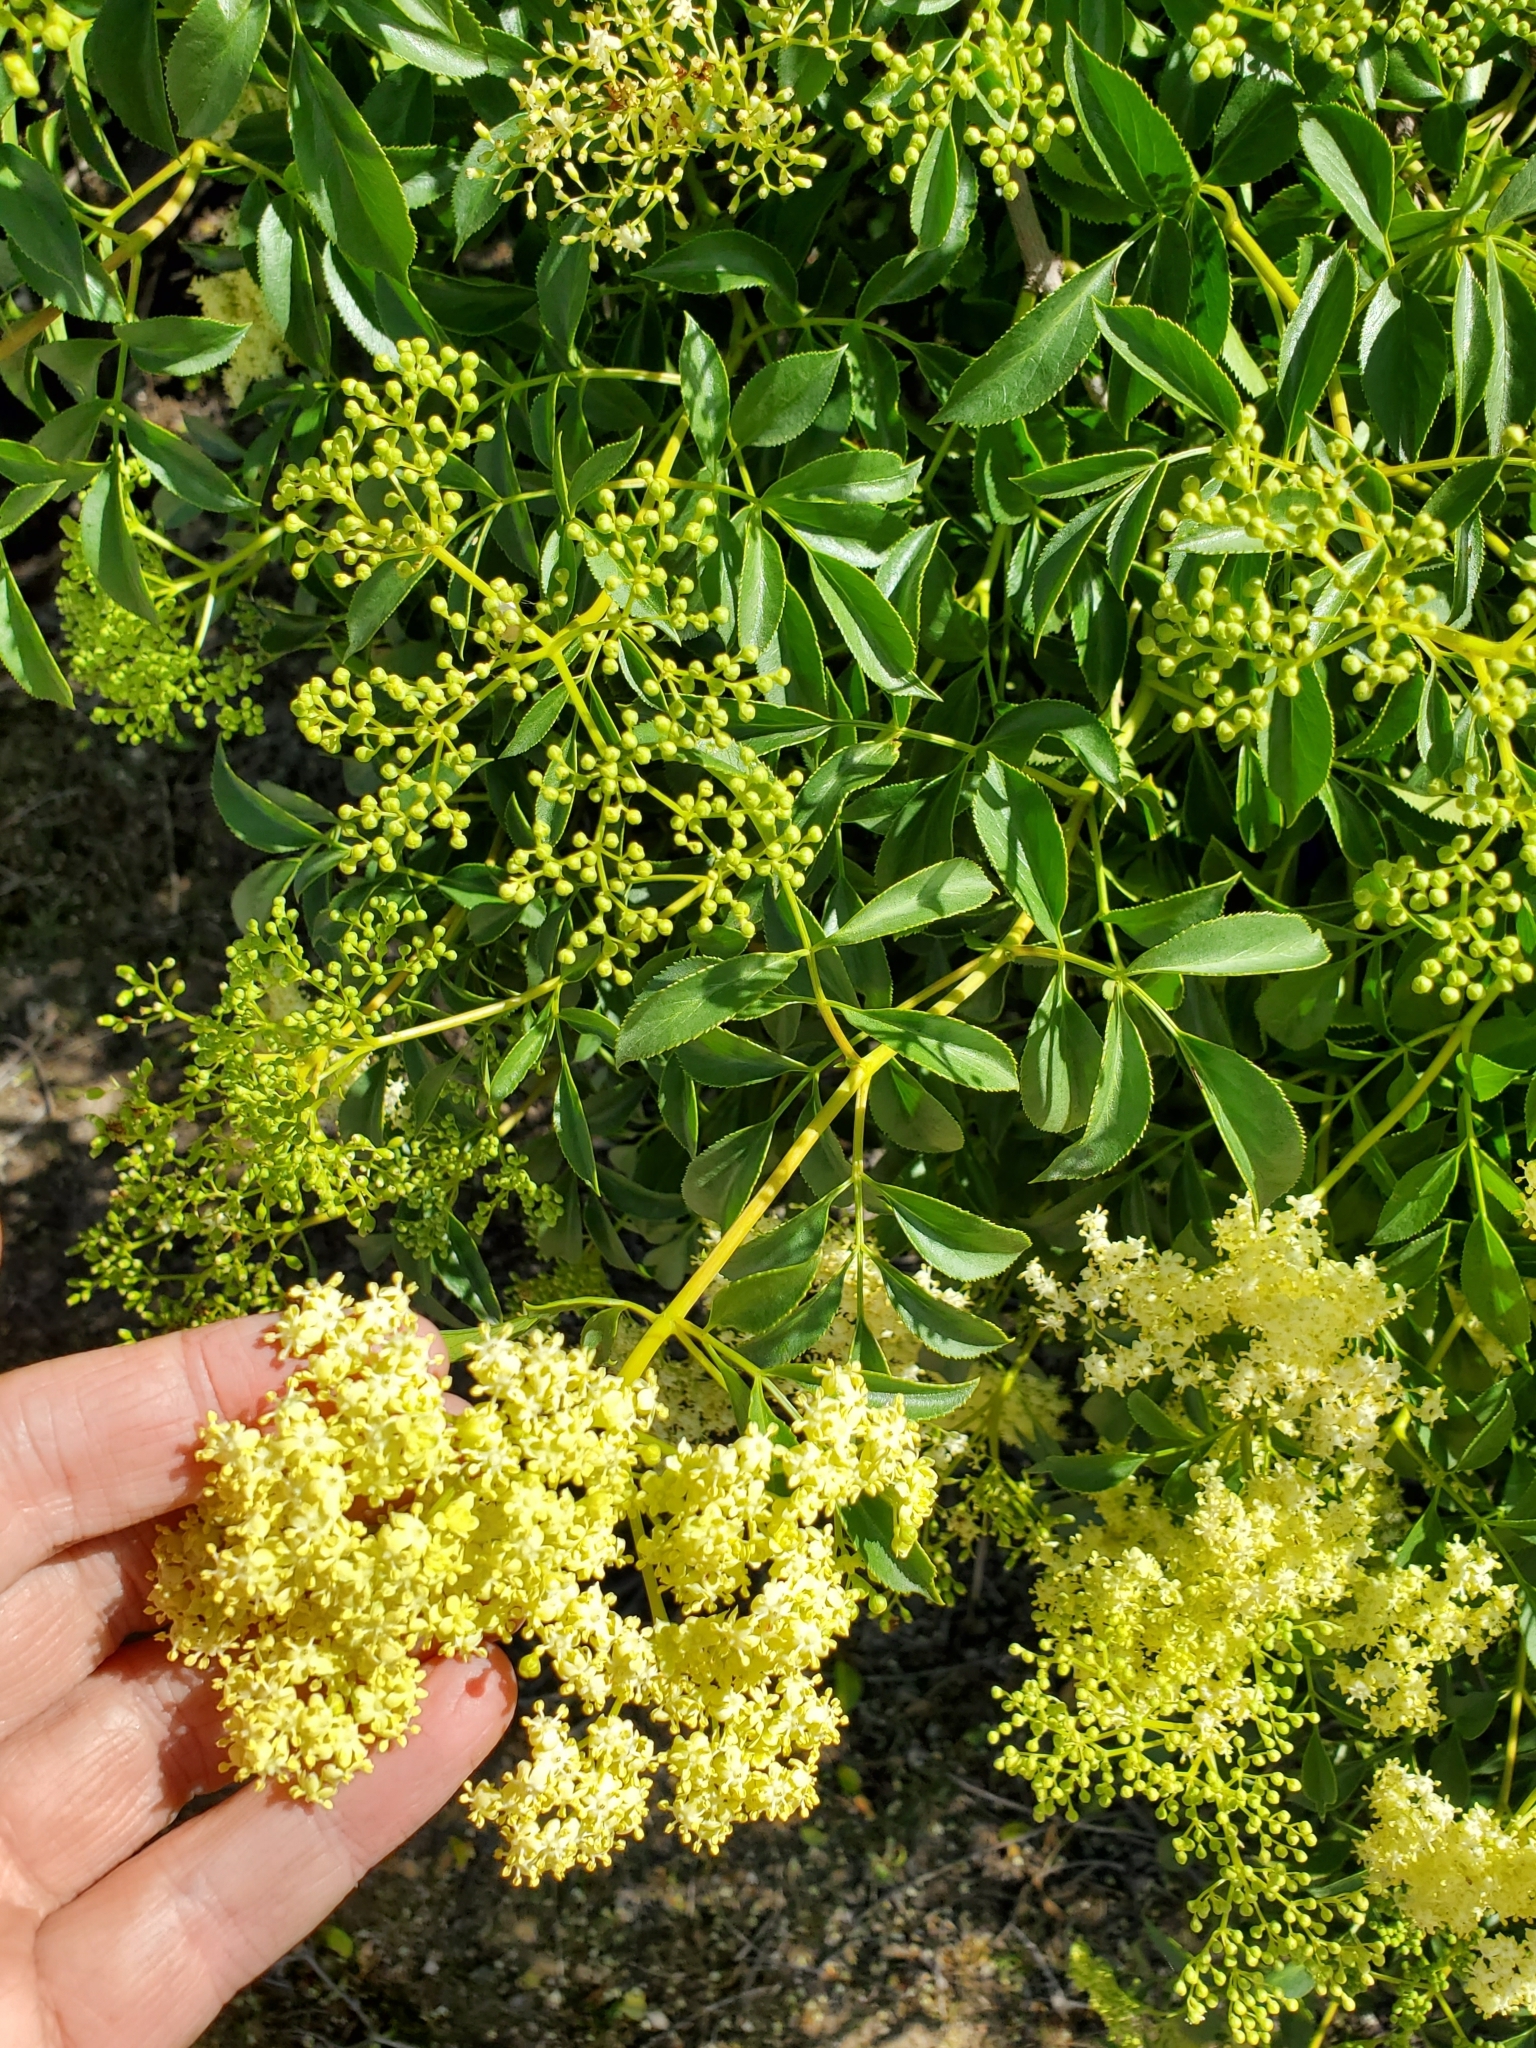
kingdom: Plantae
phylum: Tracheophyta
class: Magnoliopsida
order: Dipsacales
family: Viburnaceae
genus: Sambucus
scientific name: Sambucus cerulea
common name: Blue elder
